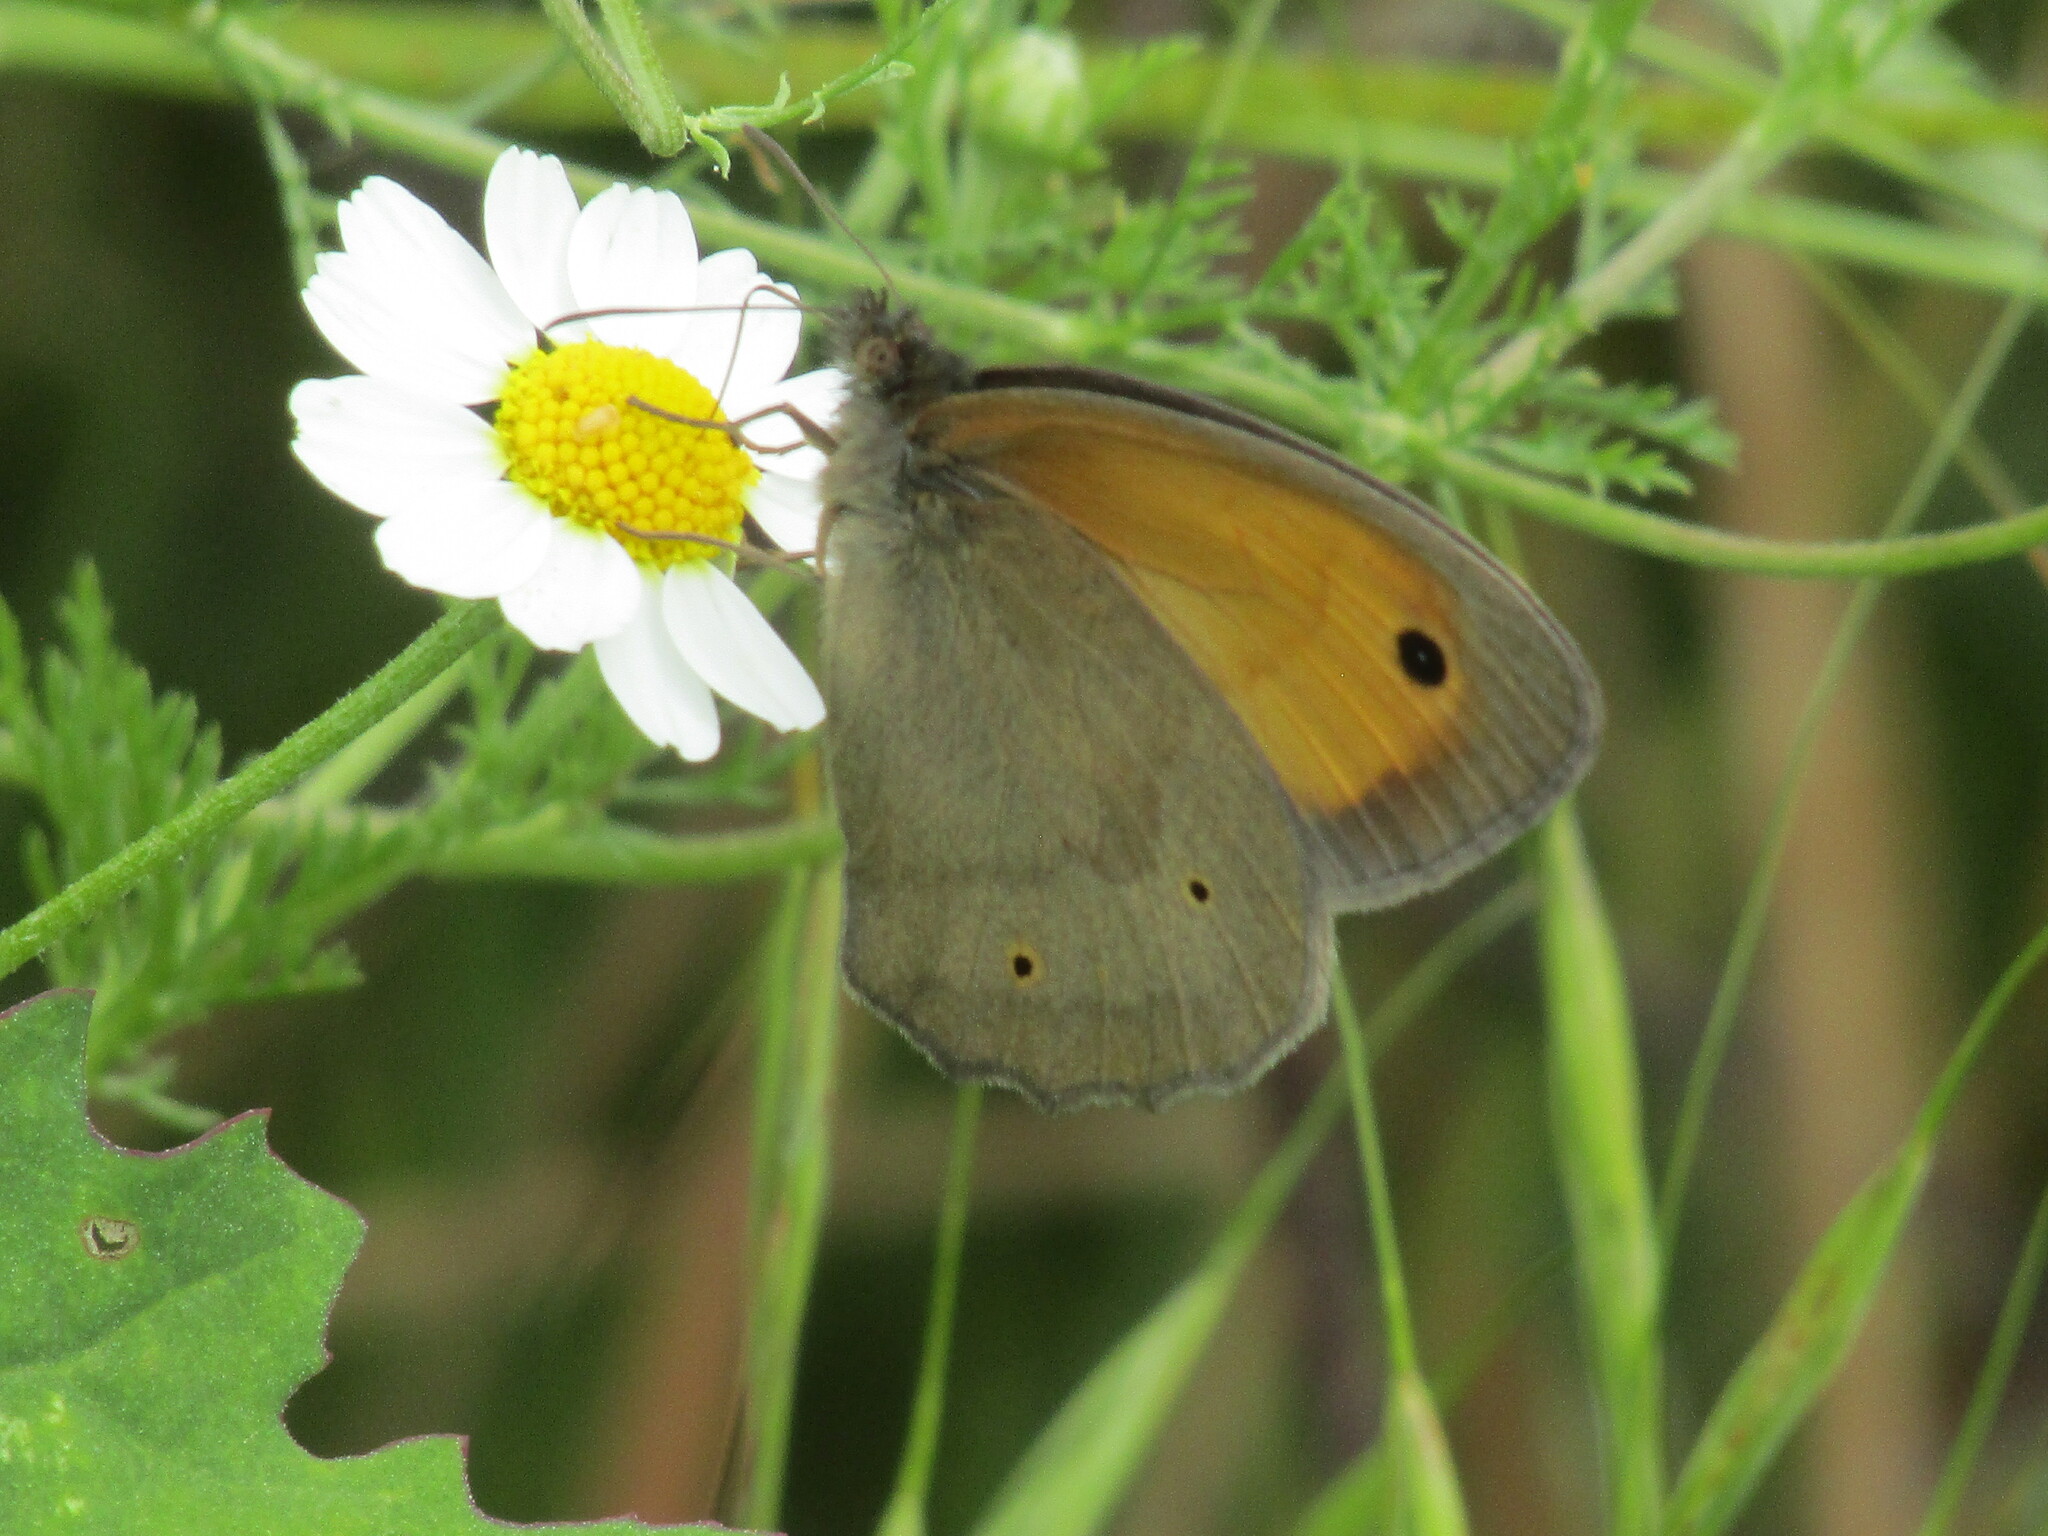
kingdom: Animalia
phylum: Arthropoda
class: Insecta
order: Lepidoptera
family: Nymphalidae
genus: Maniola
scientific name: Maniola jurtina
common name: Meadow brown
